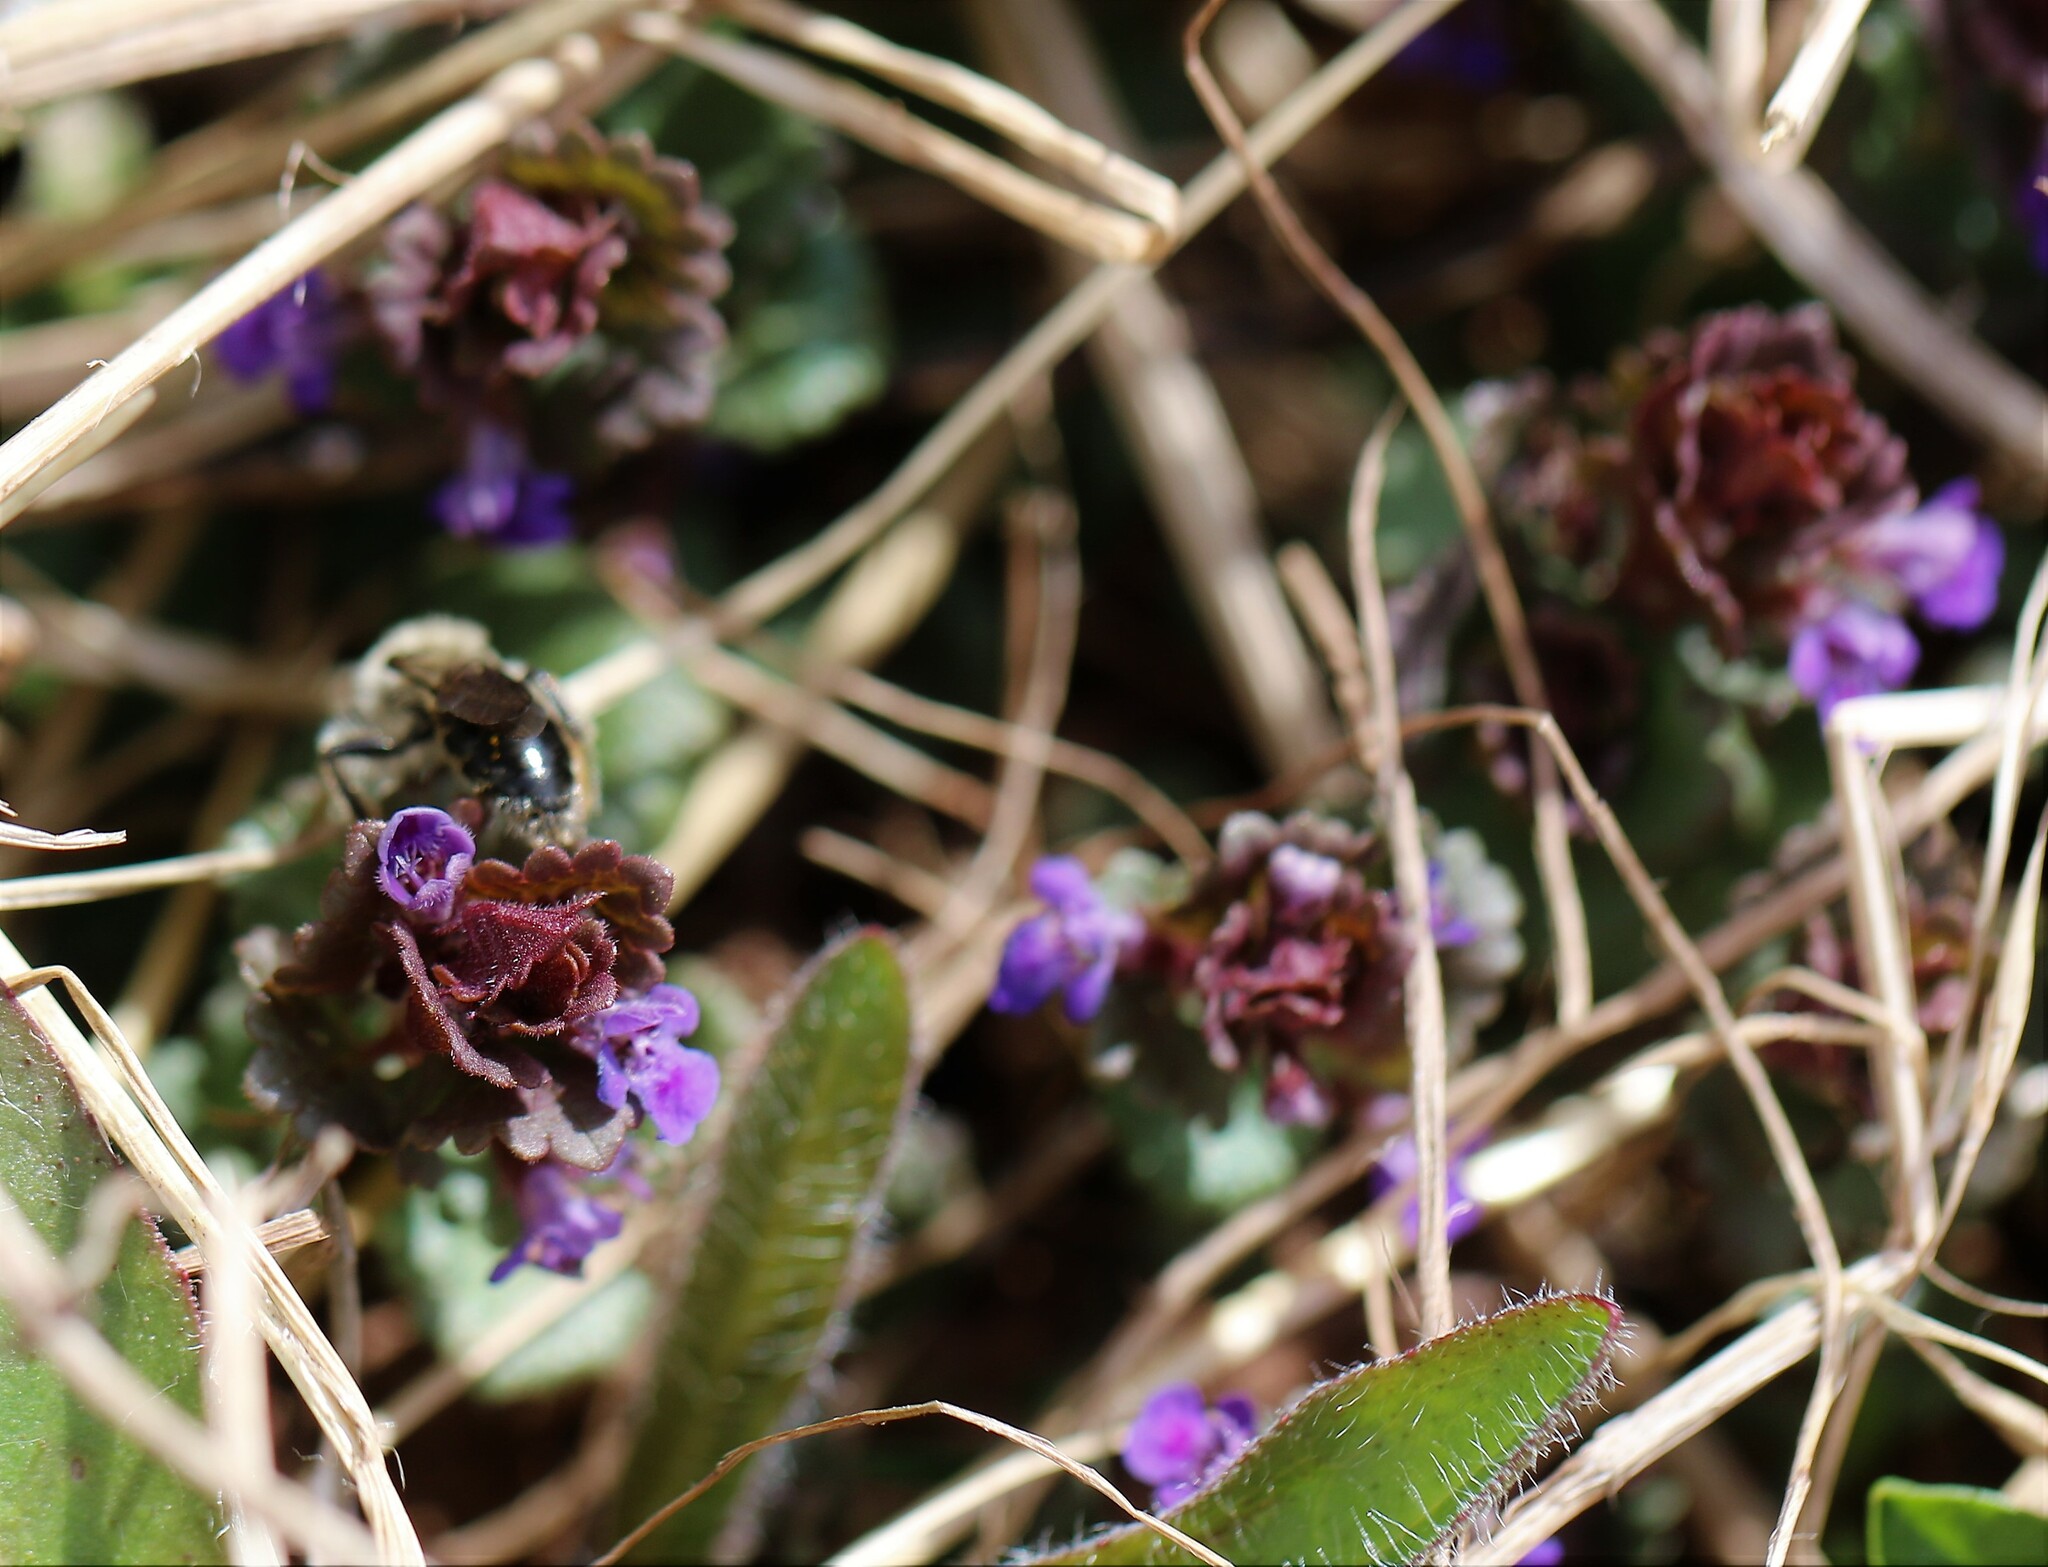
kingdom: Plantae
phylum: Tracheophyta
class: Magnoliopsida
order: Lamiales
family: Lamiaceae
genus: Glechoma
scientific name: Glechoma hederacea
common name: Ground ivy
